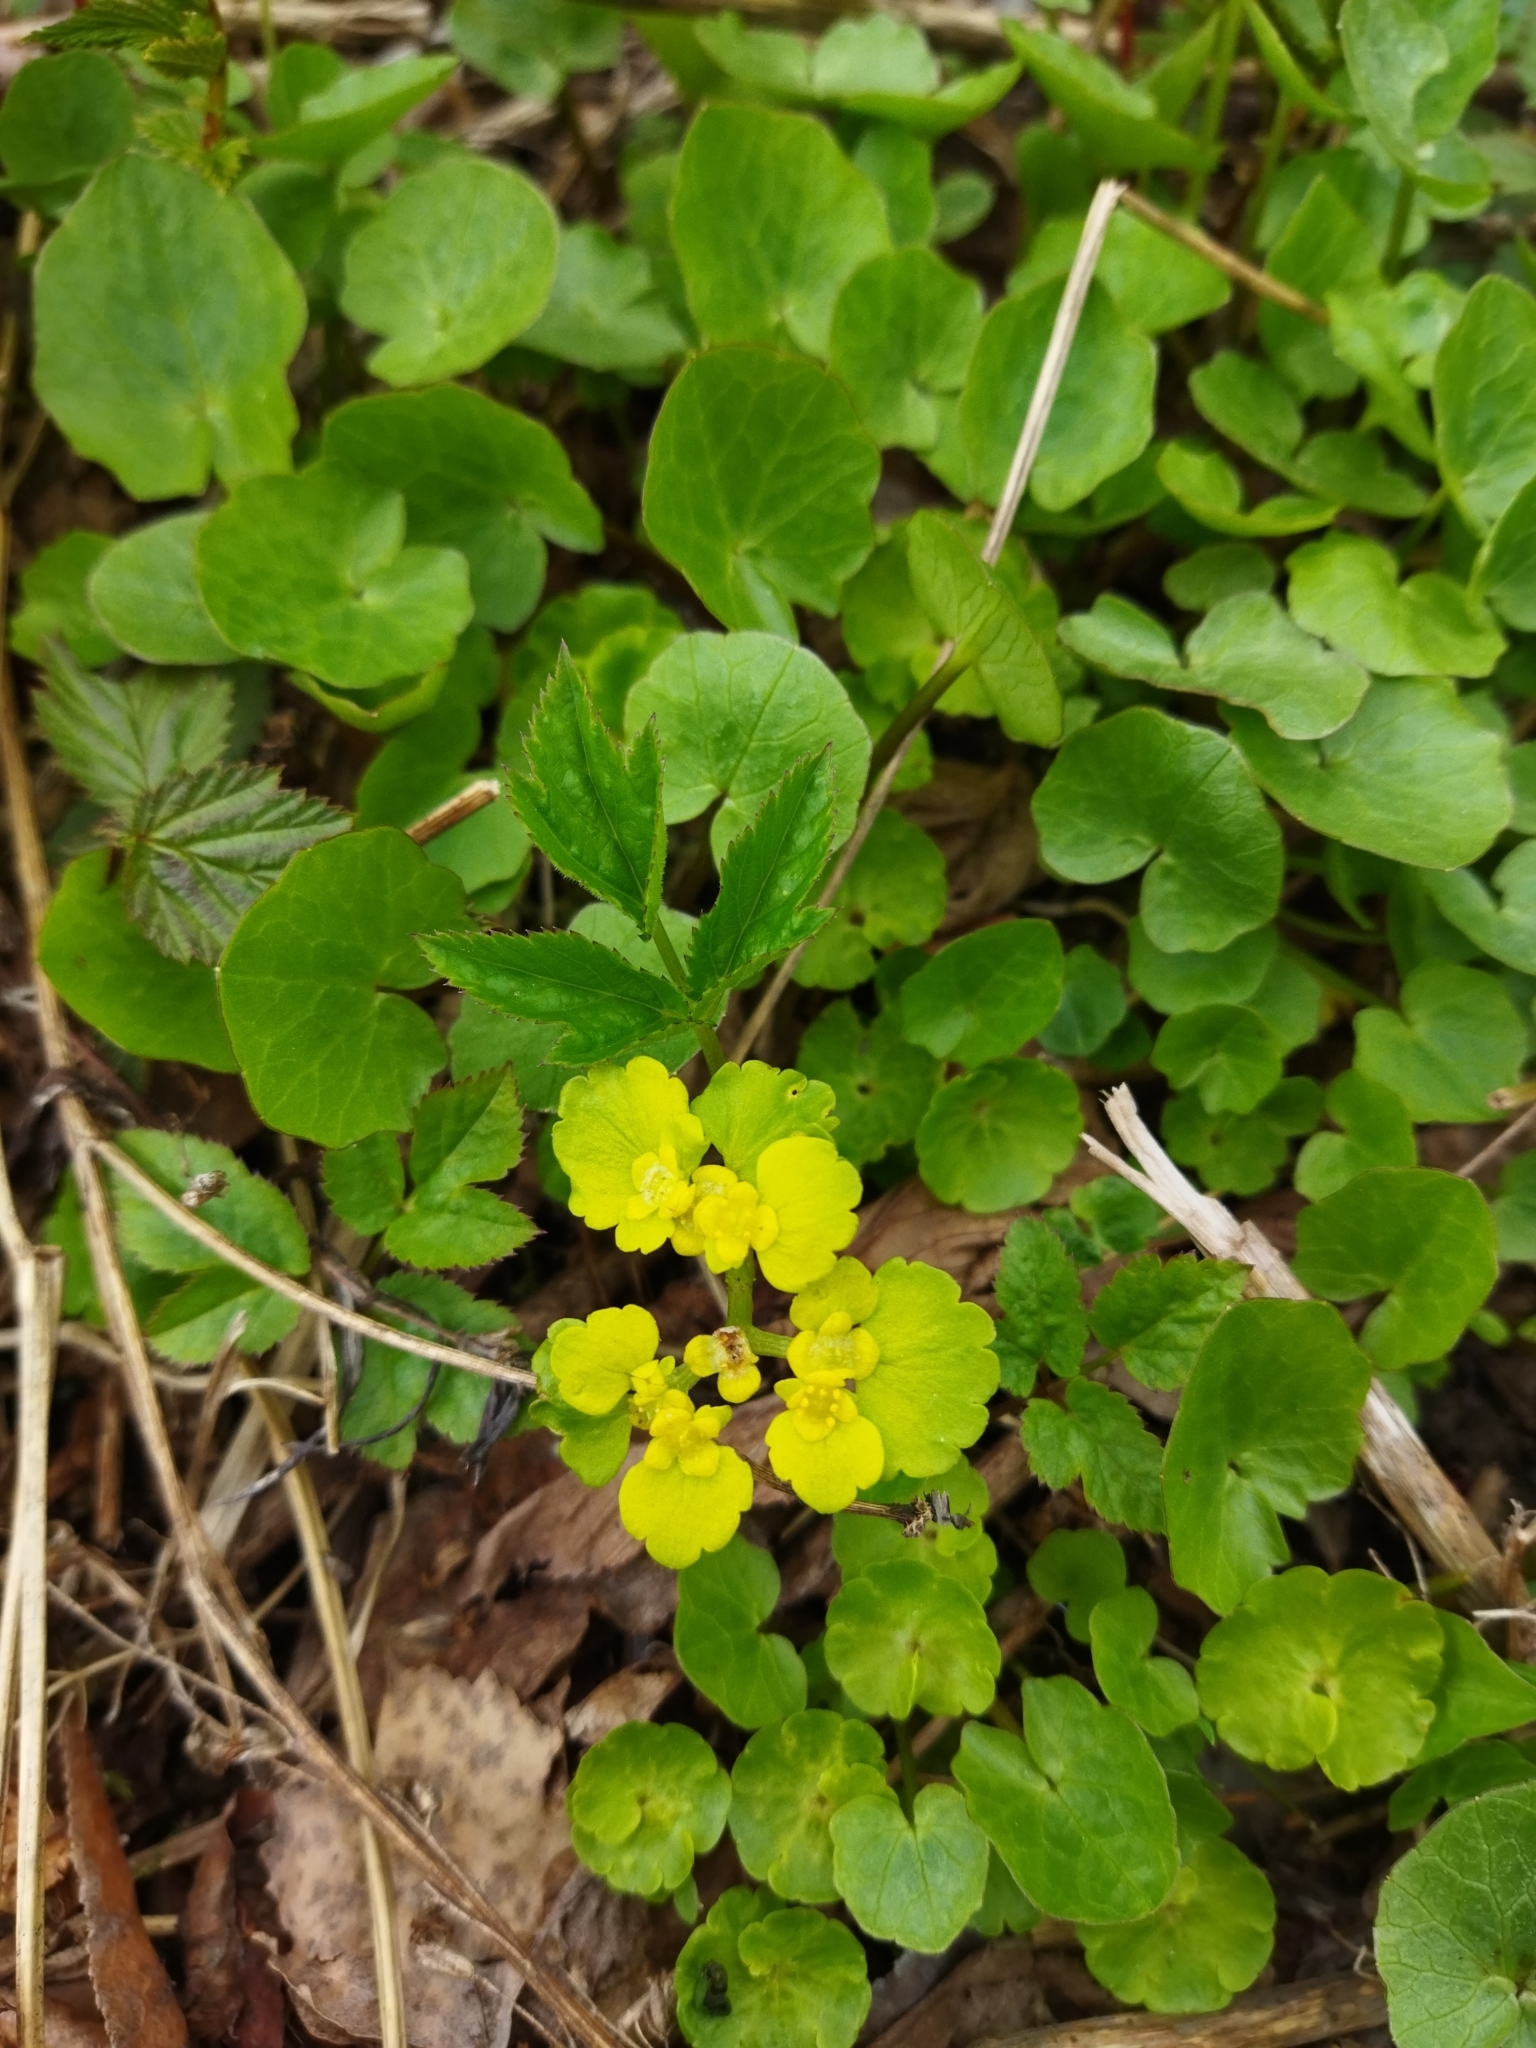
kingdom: Plantae
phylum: Tracheophyta
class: Magnoliopsida
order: Saxifragales
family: Saxifragaceae
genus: Chrysosplenium
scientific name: Chrysosplenium alternifolium
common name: Alternate-leaved golden-saxifrage
